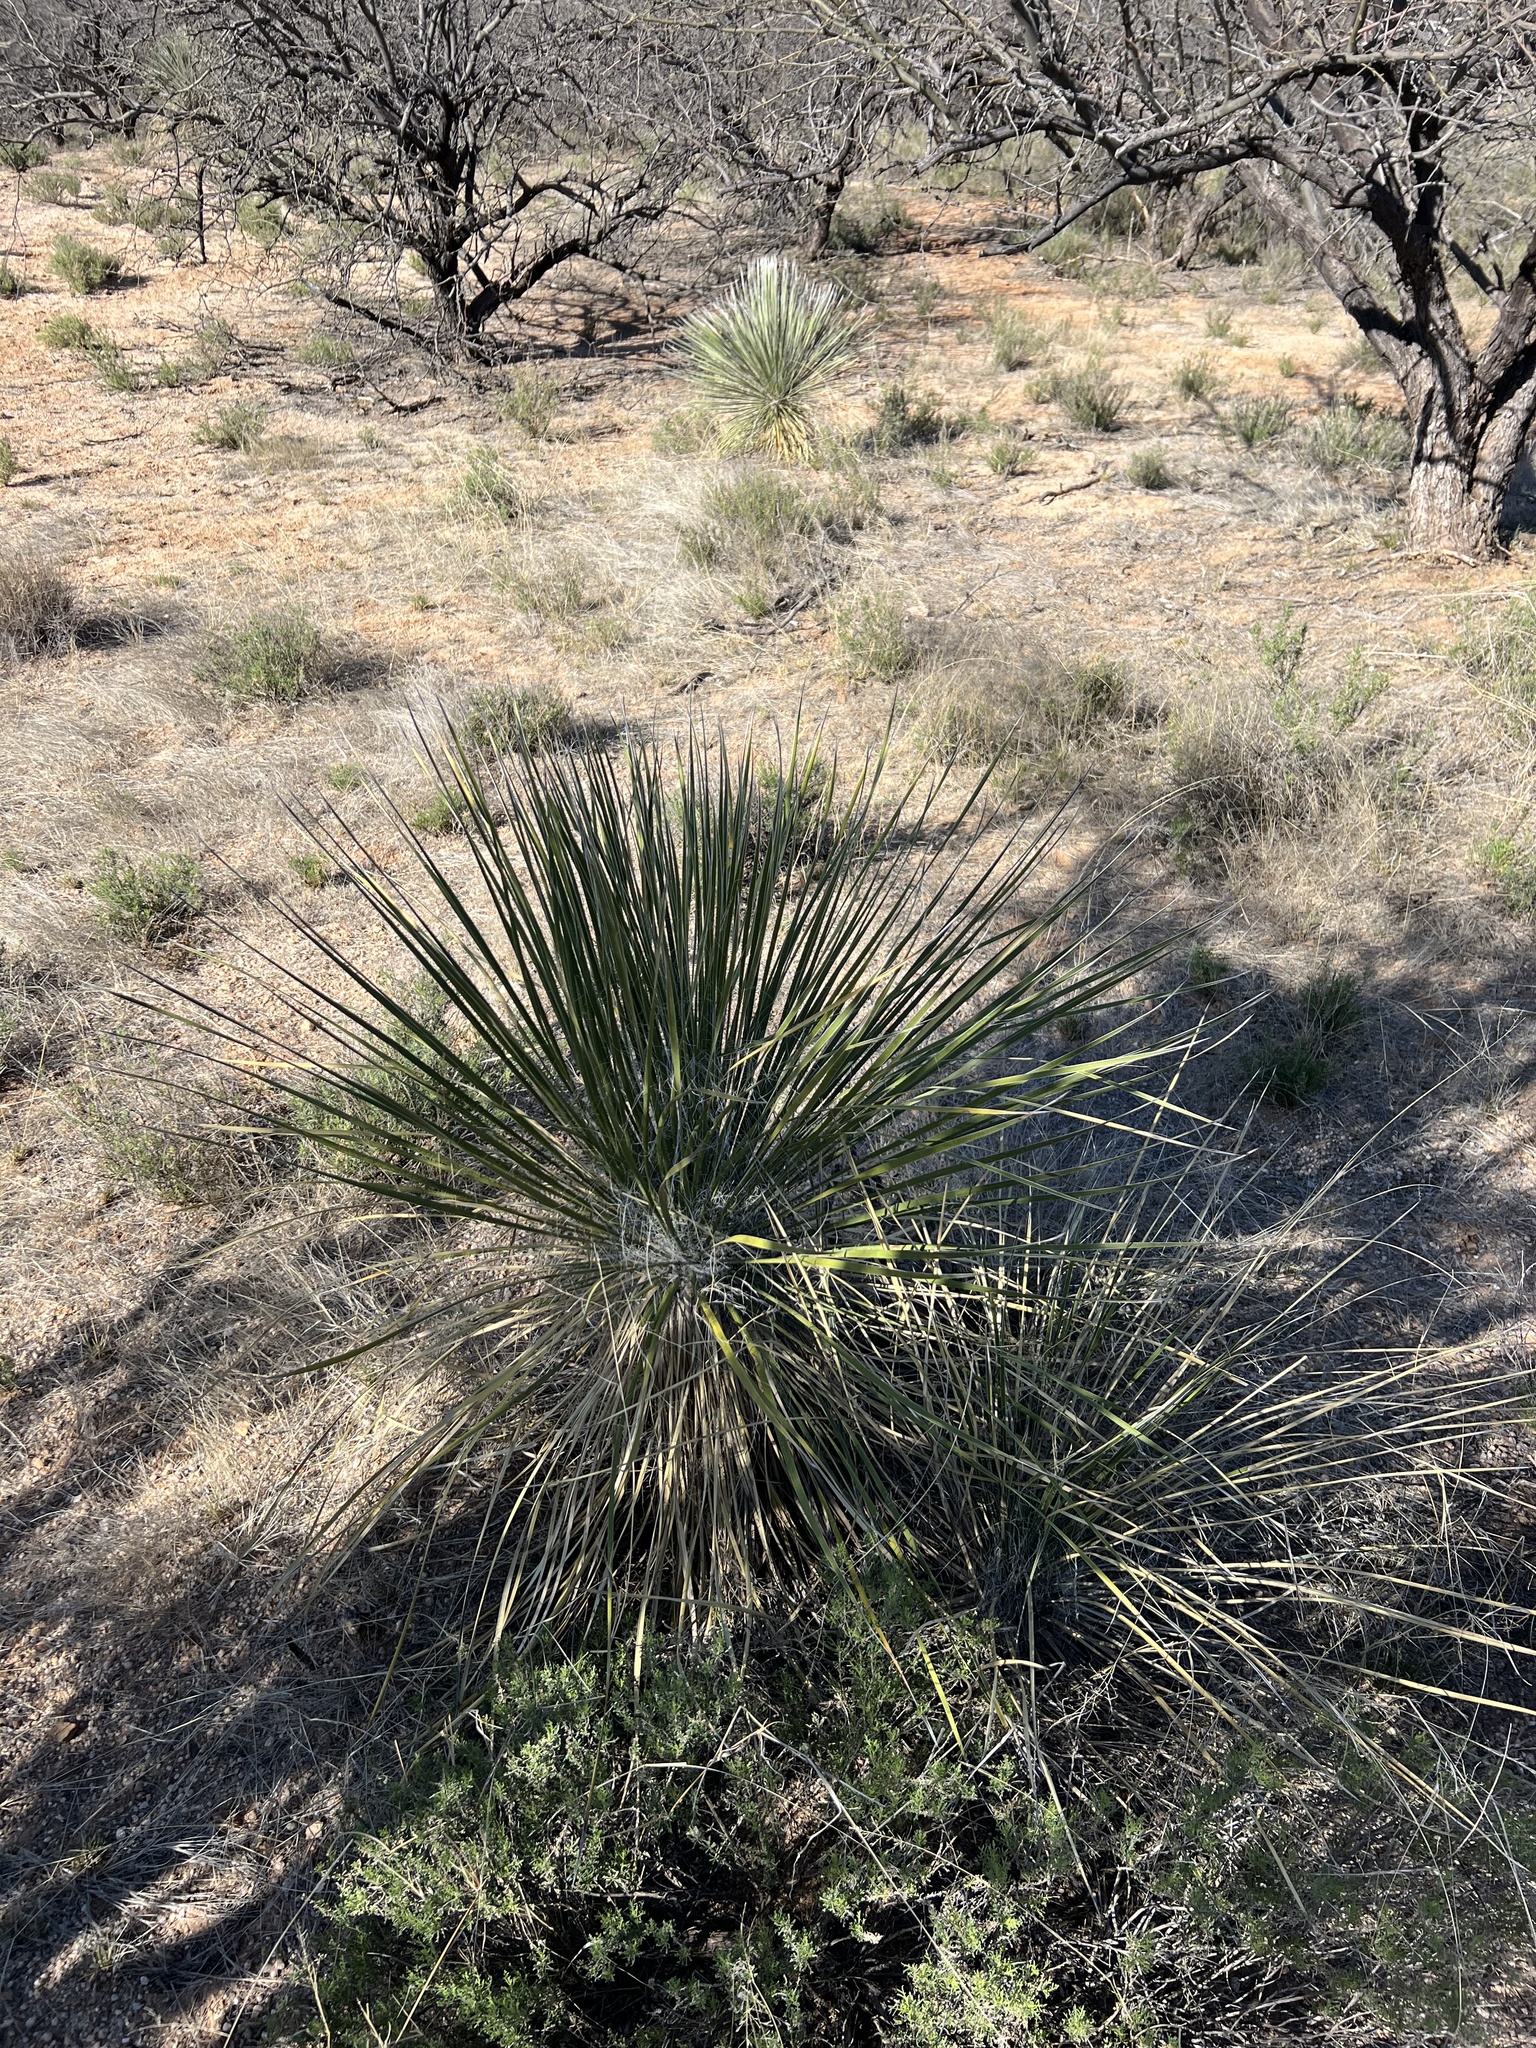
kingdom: Plantae
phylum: Tracheophyta
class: Liliopsida
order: Asparagales
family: Asparagaceae
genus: Yucca
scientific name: Yucca elata
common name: Palmella
